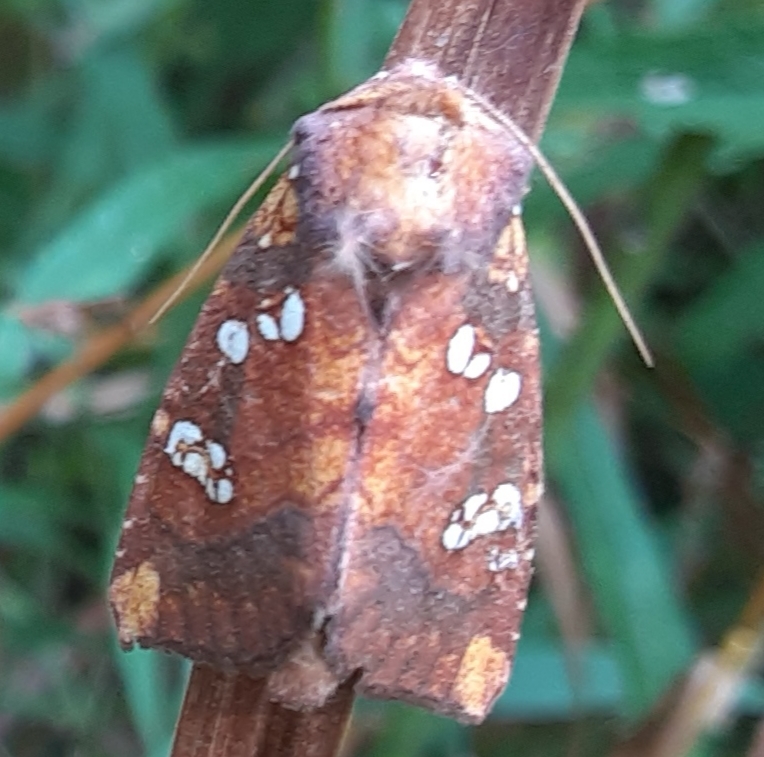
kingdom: Animalia
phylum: Arthropoda
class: Insecta
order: Lepidoptera
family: Noctuidae
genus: Papaipema
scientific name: Papaipema baptisiae
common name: Wild indigo borer moth
